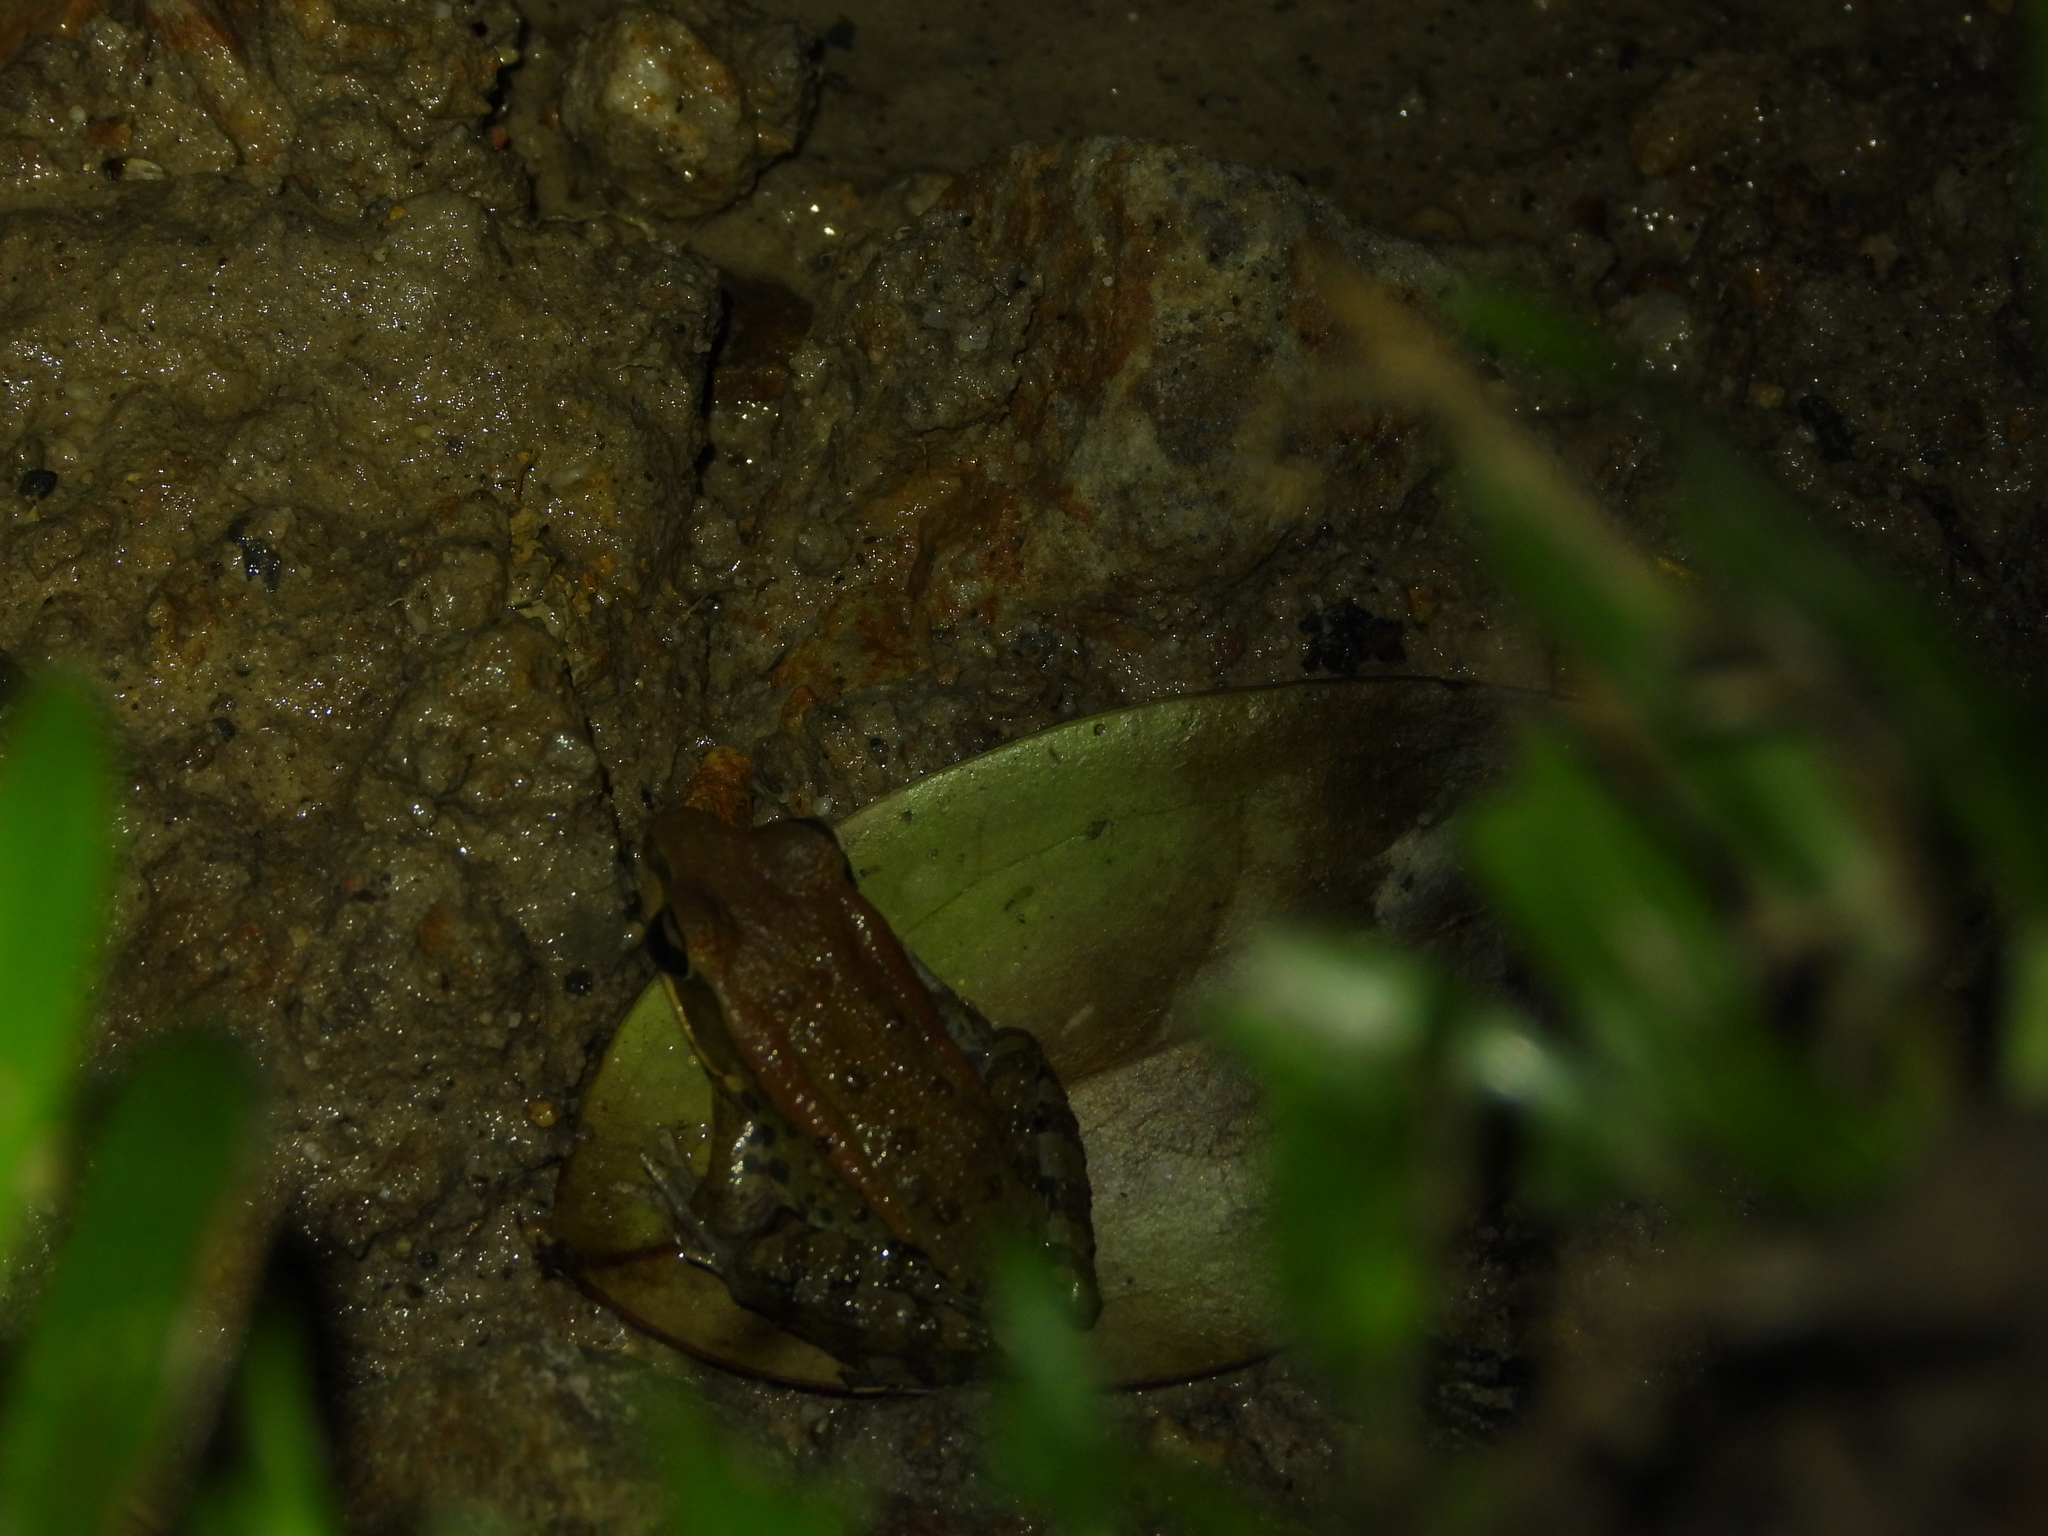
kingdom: Animalia
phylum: Chordata
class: Amphibia
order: Anura
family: Ranidae
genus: Hylarana
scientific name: Hylarana latouchii
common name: Broad-folded frog
